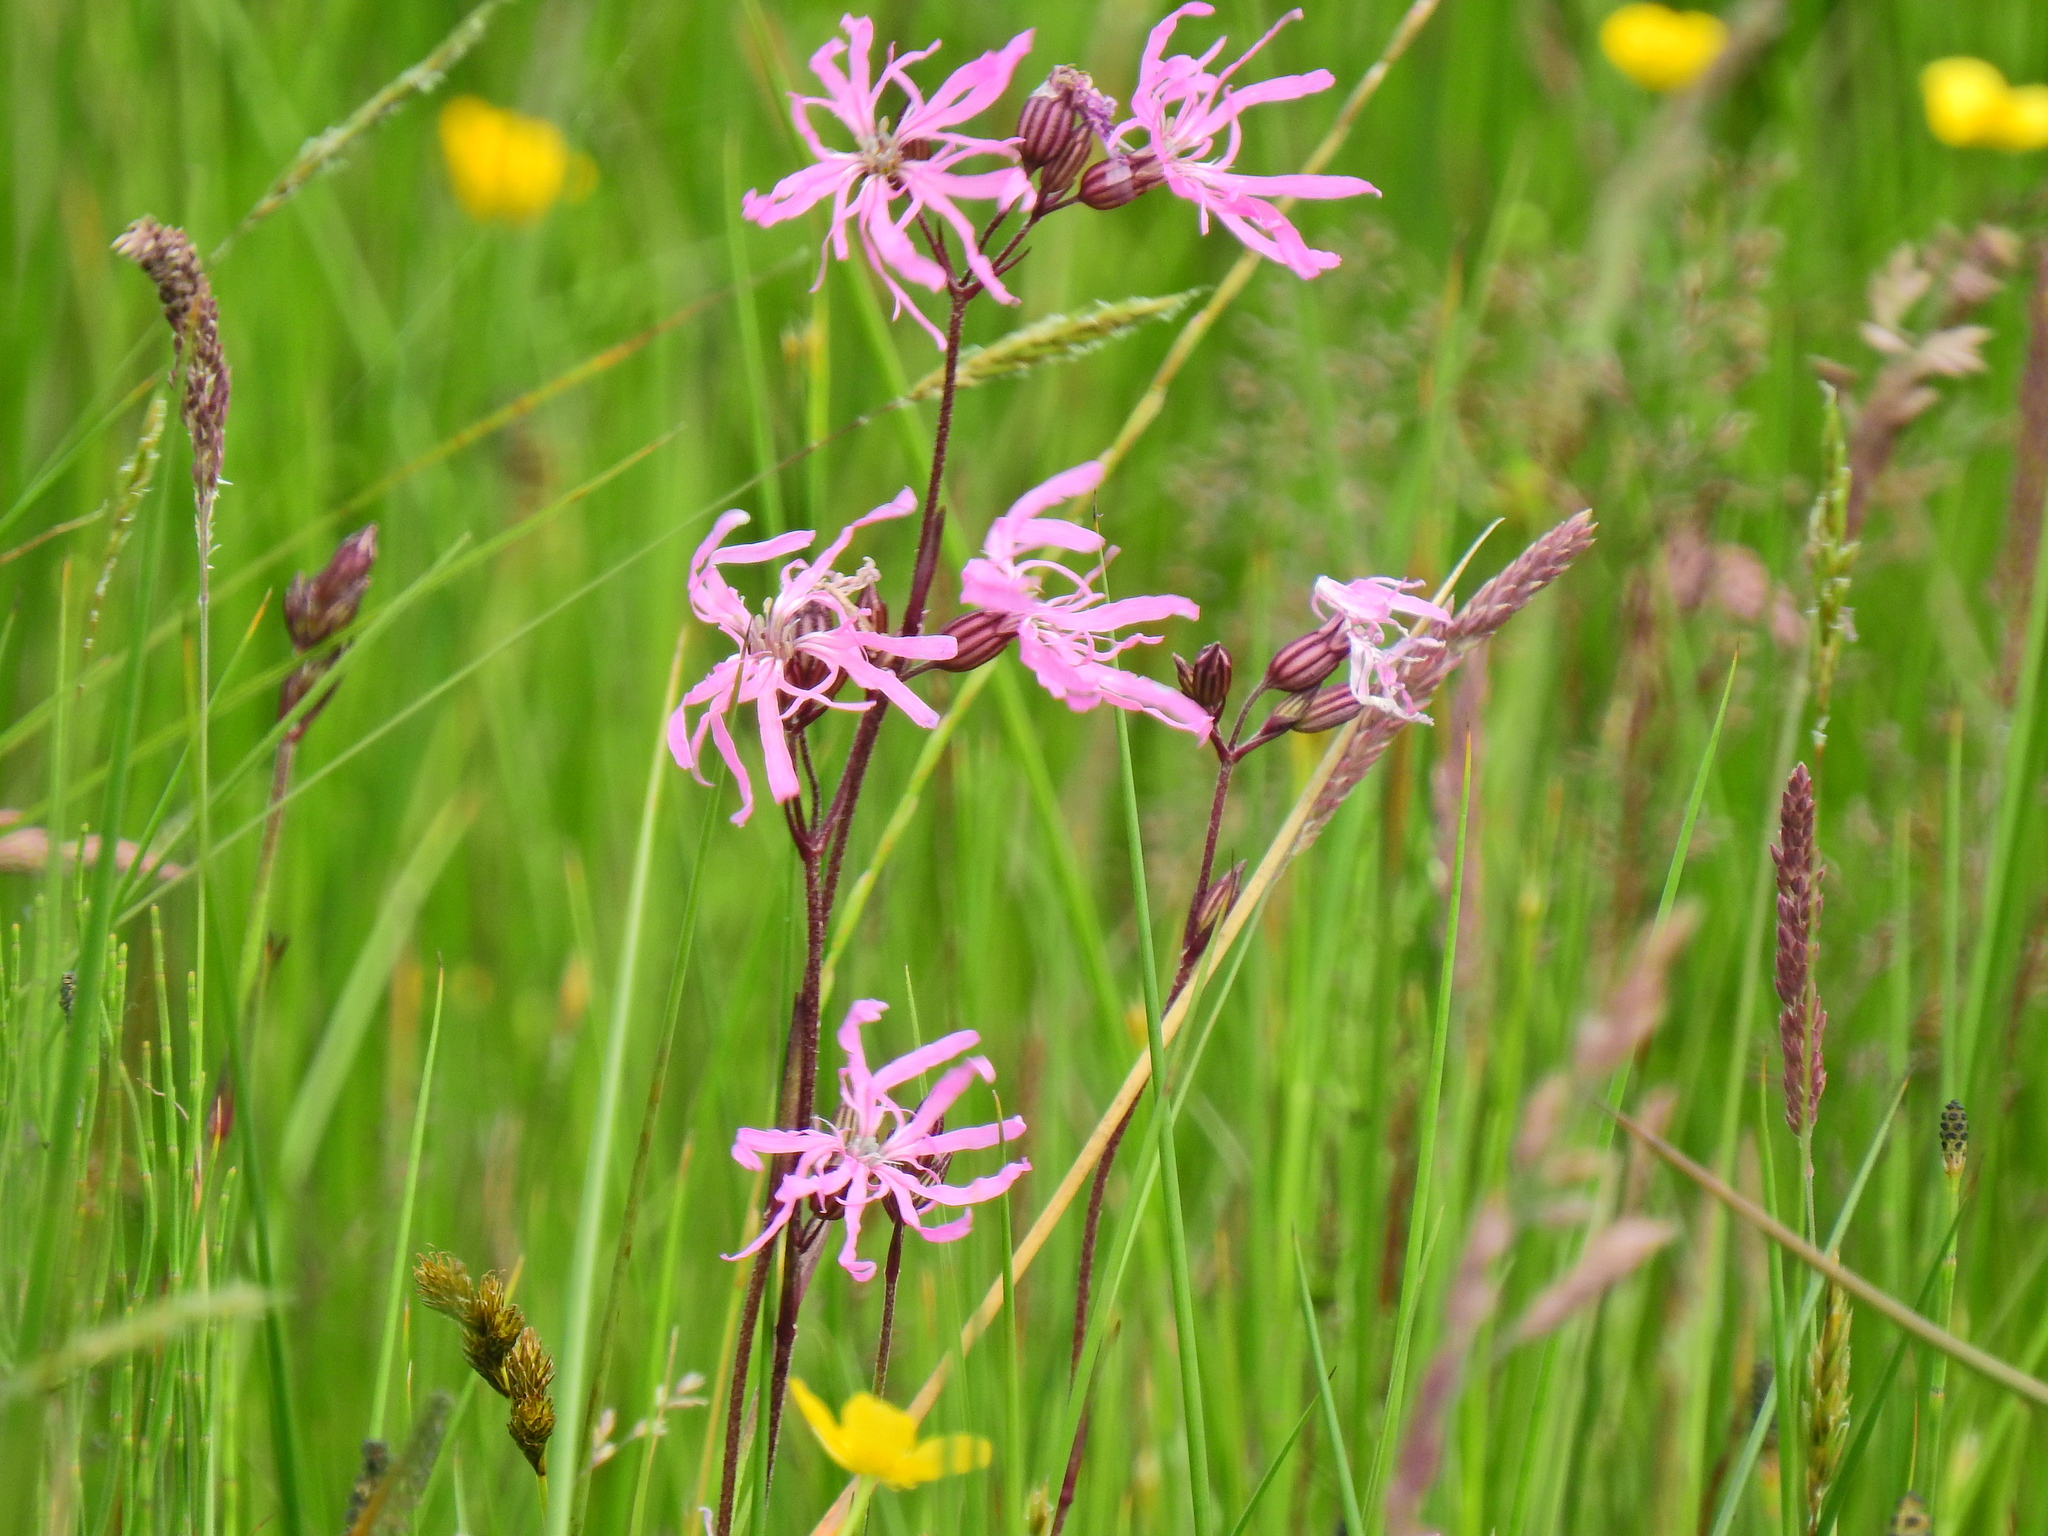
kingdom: Plantae
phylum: Tracheophyta
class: Magnoliopsida
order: Caryophyllales
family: Caryophyllaceae
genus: Silene
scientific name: Silene flos-cuculi
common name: Ragged-robin
